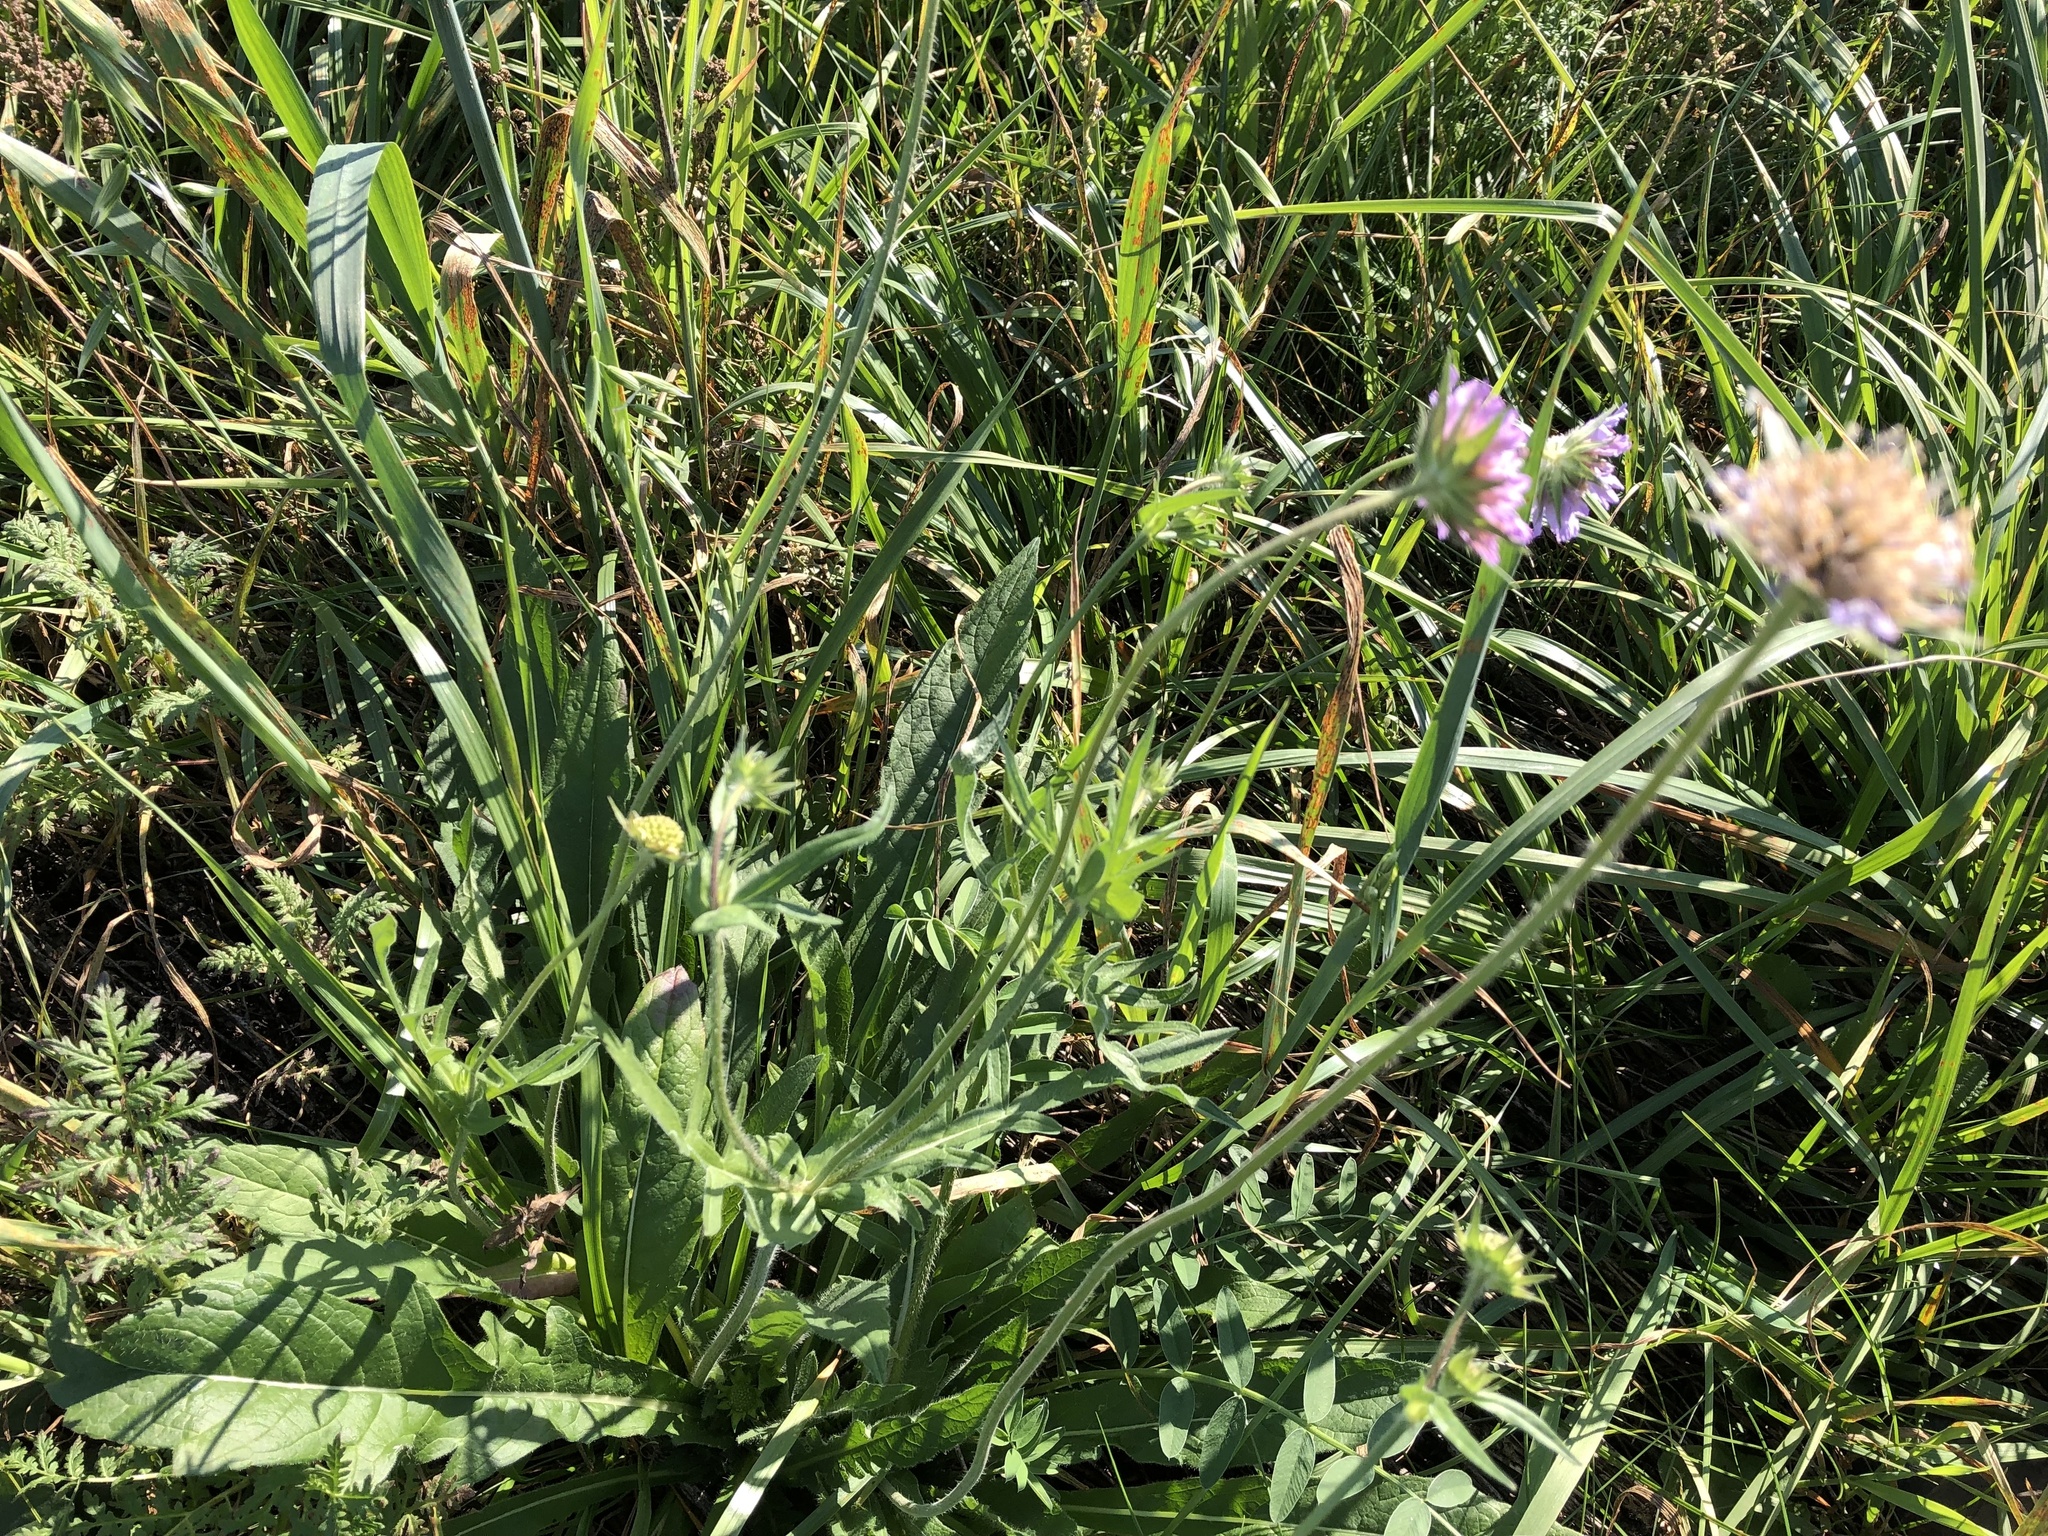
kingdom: Plantae
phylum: Tracheophyta
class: Magnoliopsida
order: Dipsacales
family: Caprifoliaceae
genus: Knautia
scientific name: Knautia arvensis
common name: Field scabiosa
